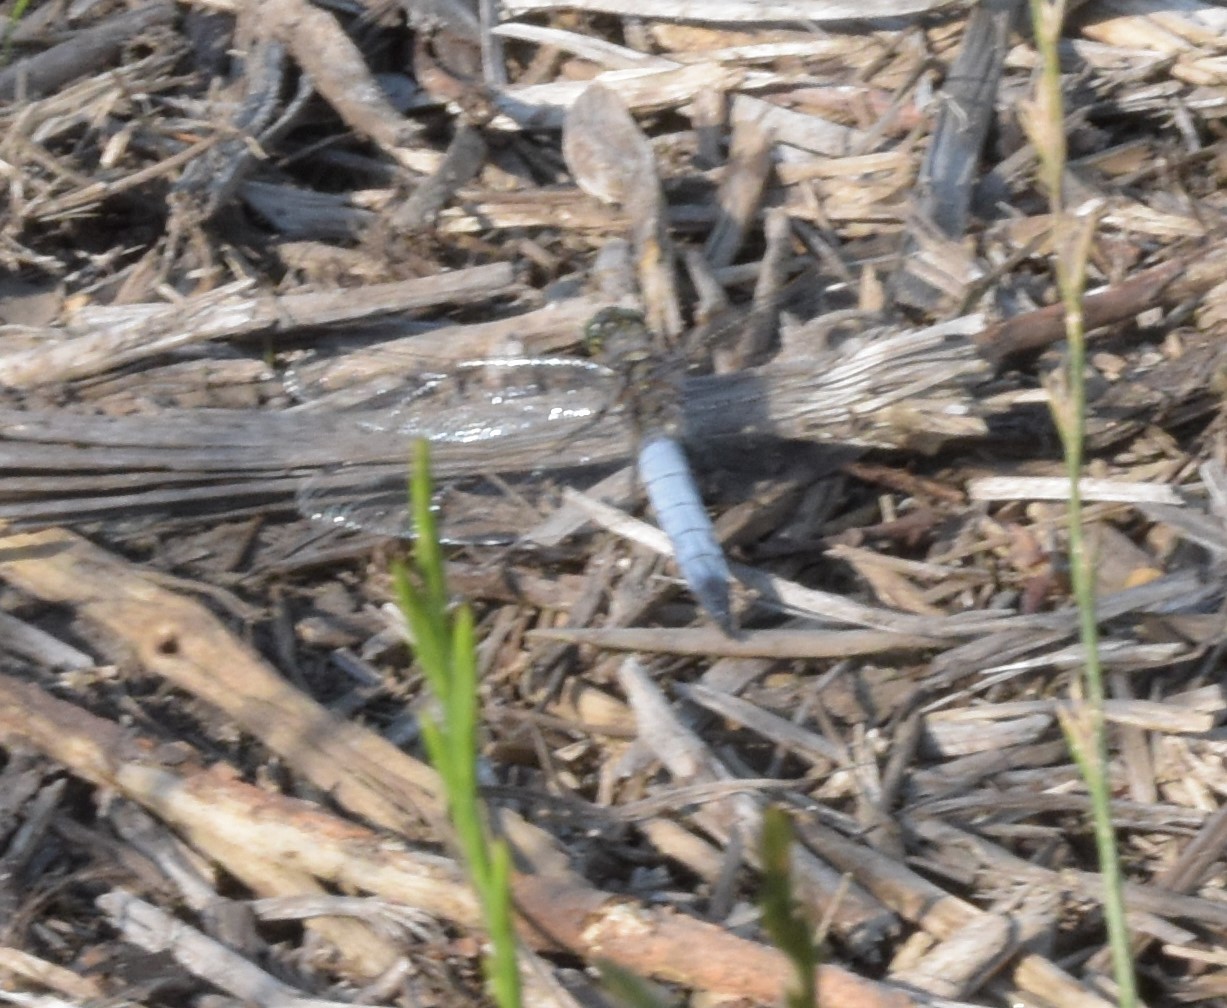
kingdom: Animalia
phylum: Arthropoda
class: Insecta
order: Odonata
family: Libellulidae
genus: Orthetrum
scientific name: Orthetrum cancellatum
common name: Black-tailed skimmer
